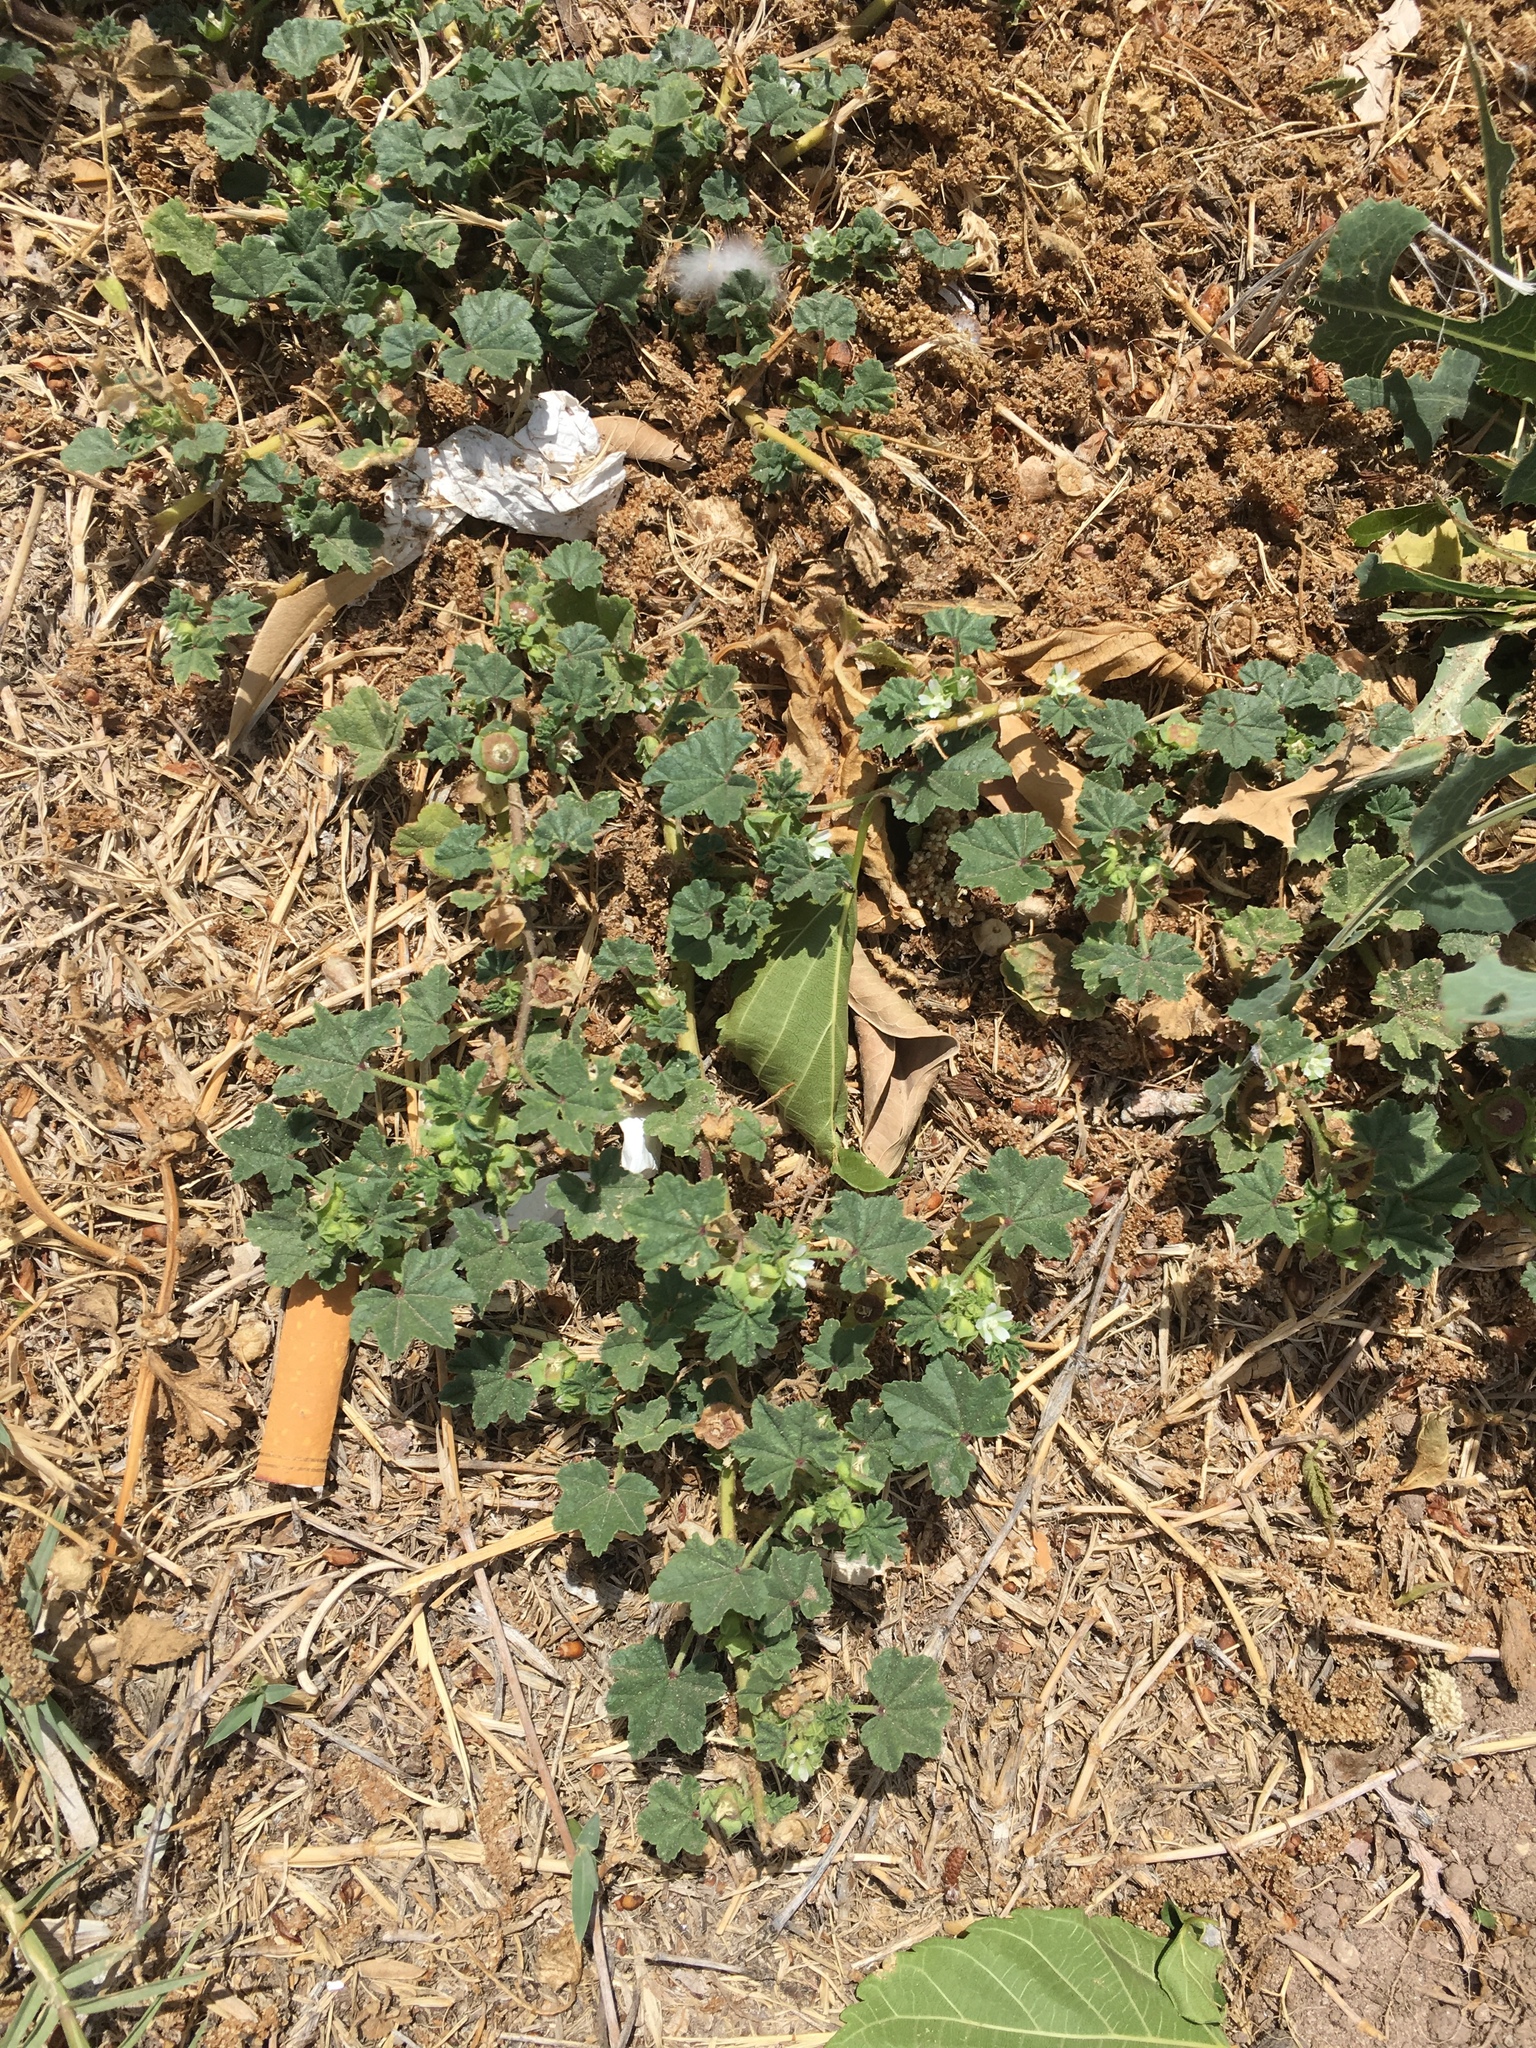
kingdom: Plantae
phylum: Tracheophyta
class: Magnoliopsida
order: Malvales
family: Malvaceae
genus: Malva
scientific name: Malva parviflora
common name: Least mallow
